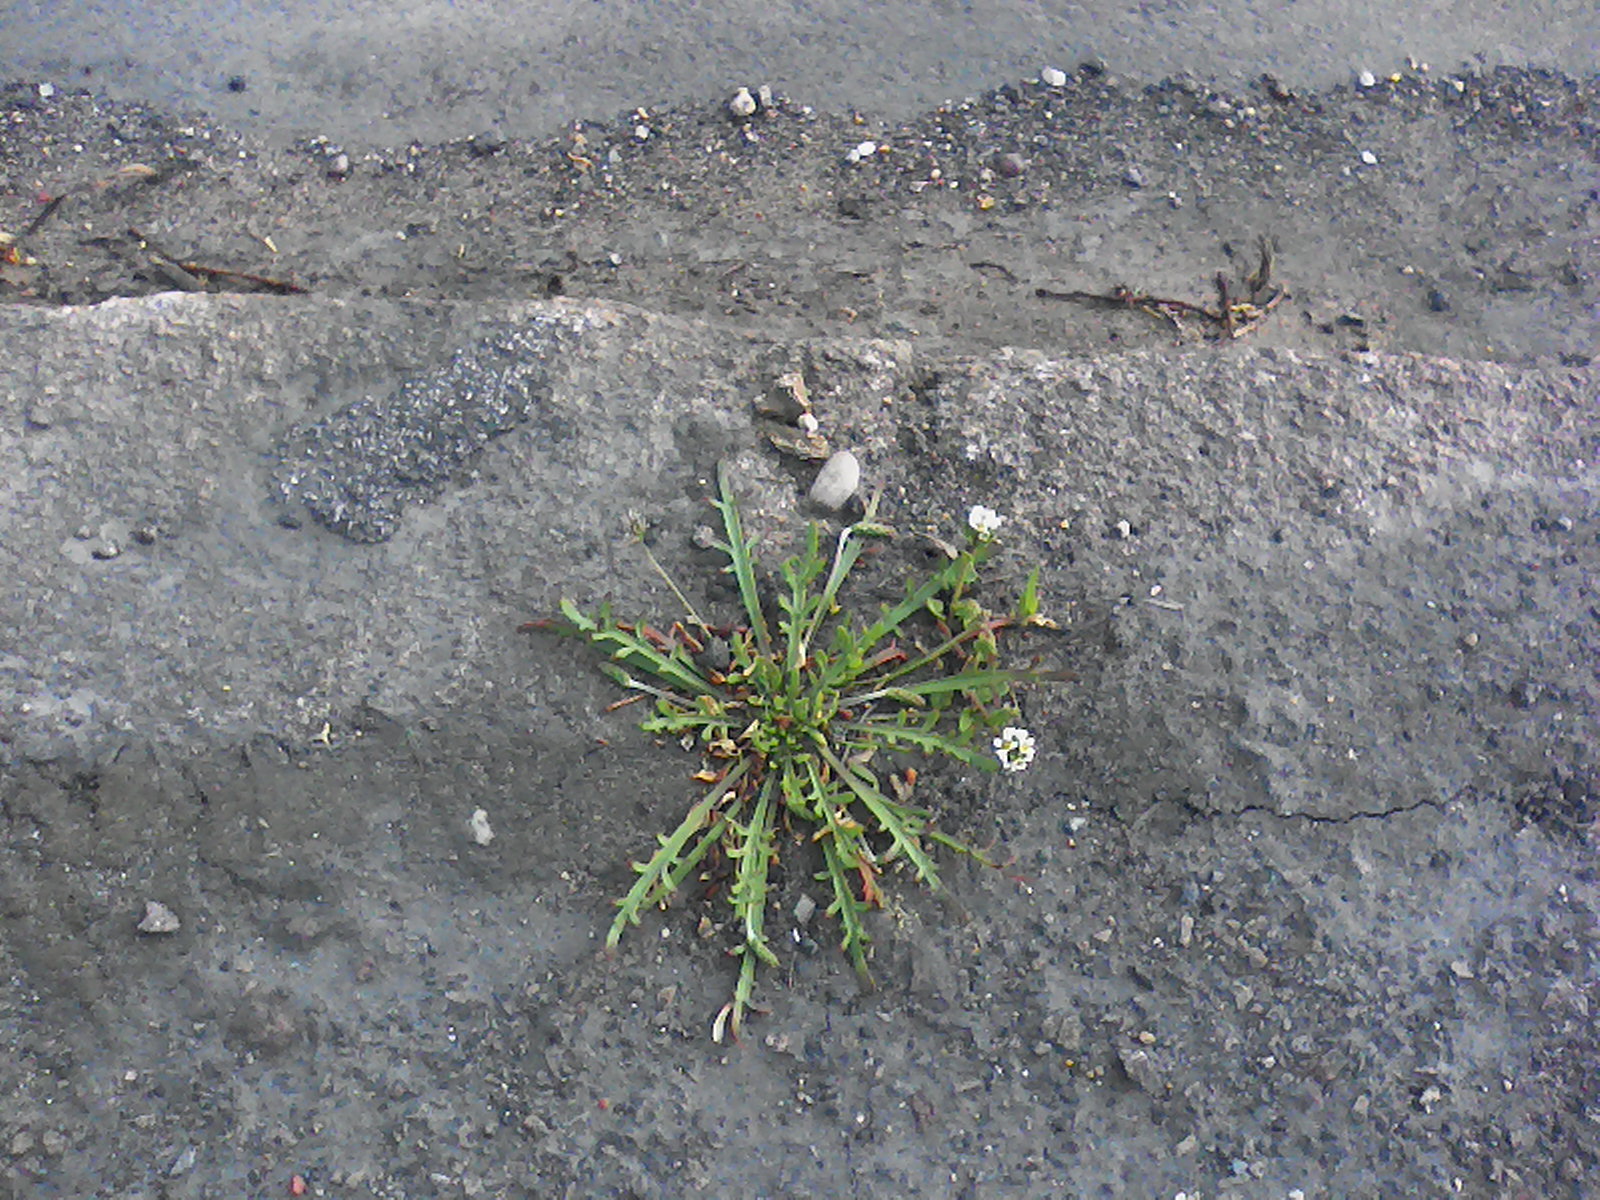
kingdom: Plantae
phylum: Tracheophyta
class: Magnoliopsida
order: Lamiales
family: Plantaginaceae
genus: Plantago
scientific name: Plantago coronopus
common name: Buck's-horn plantain
